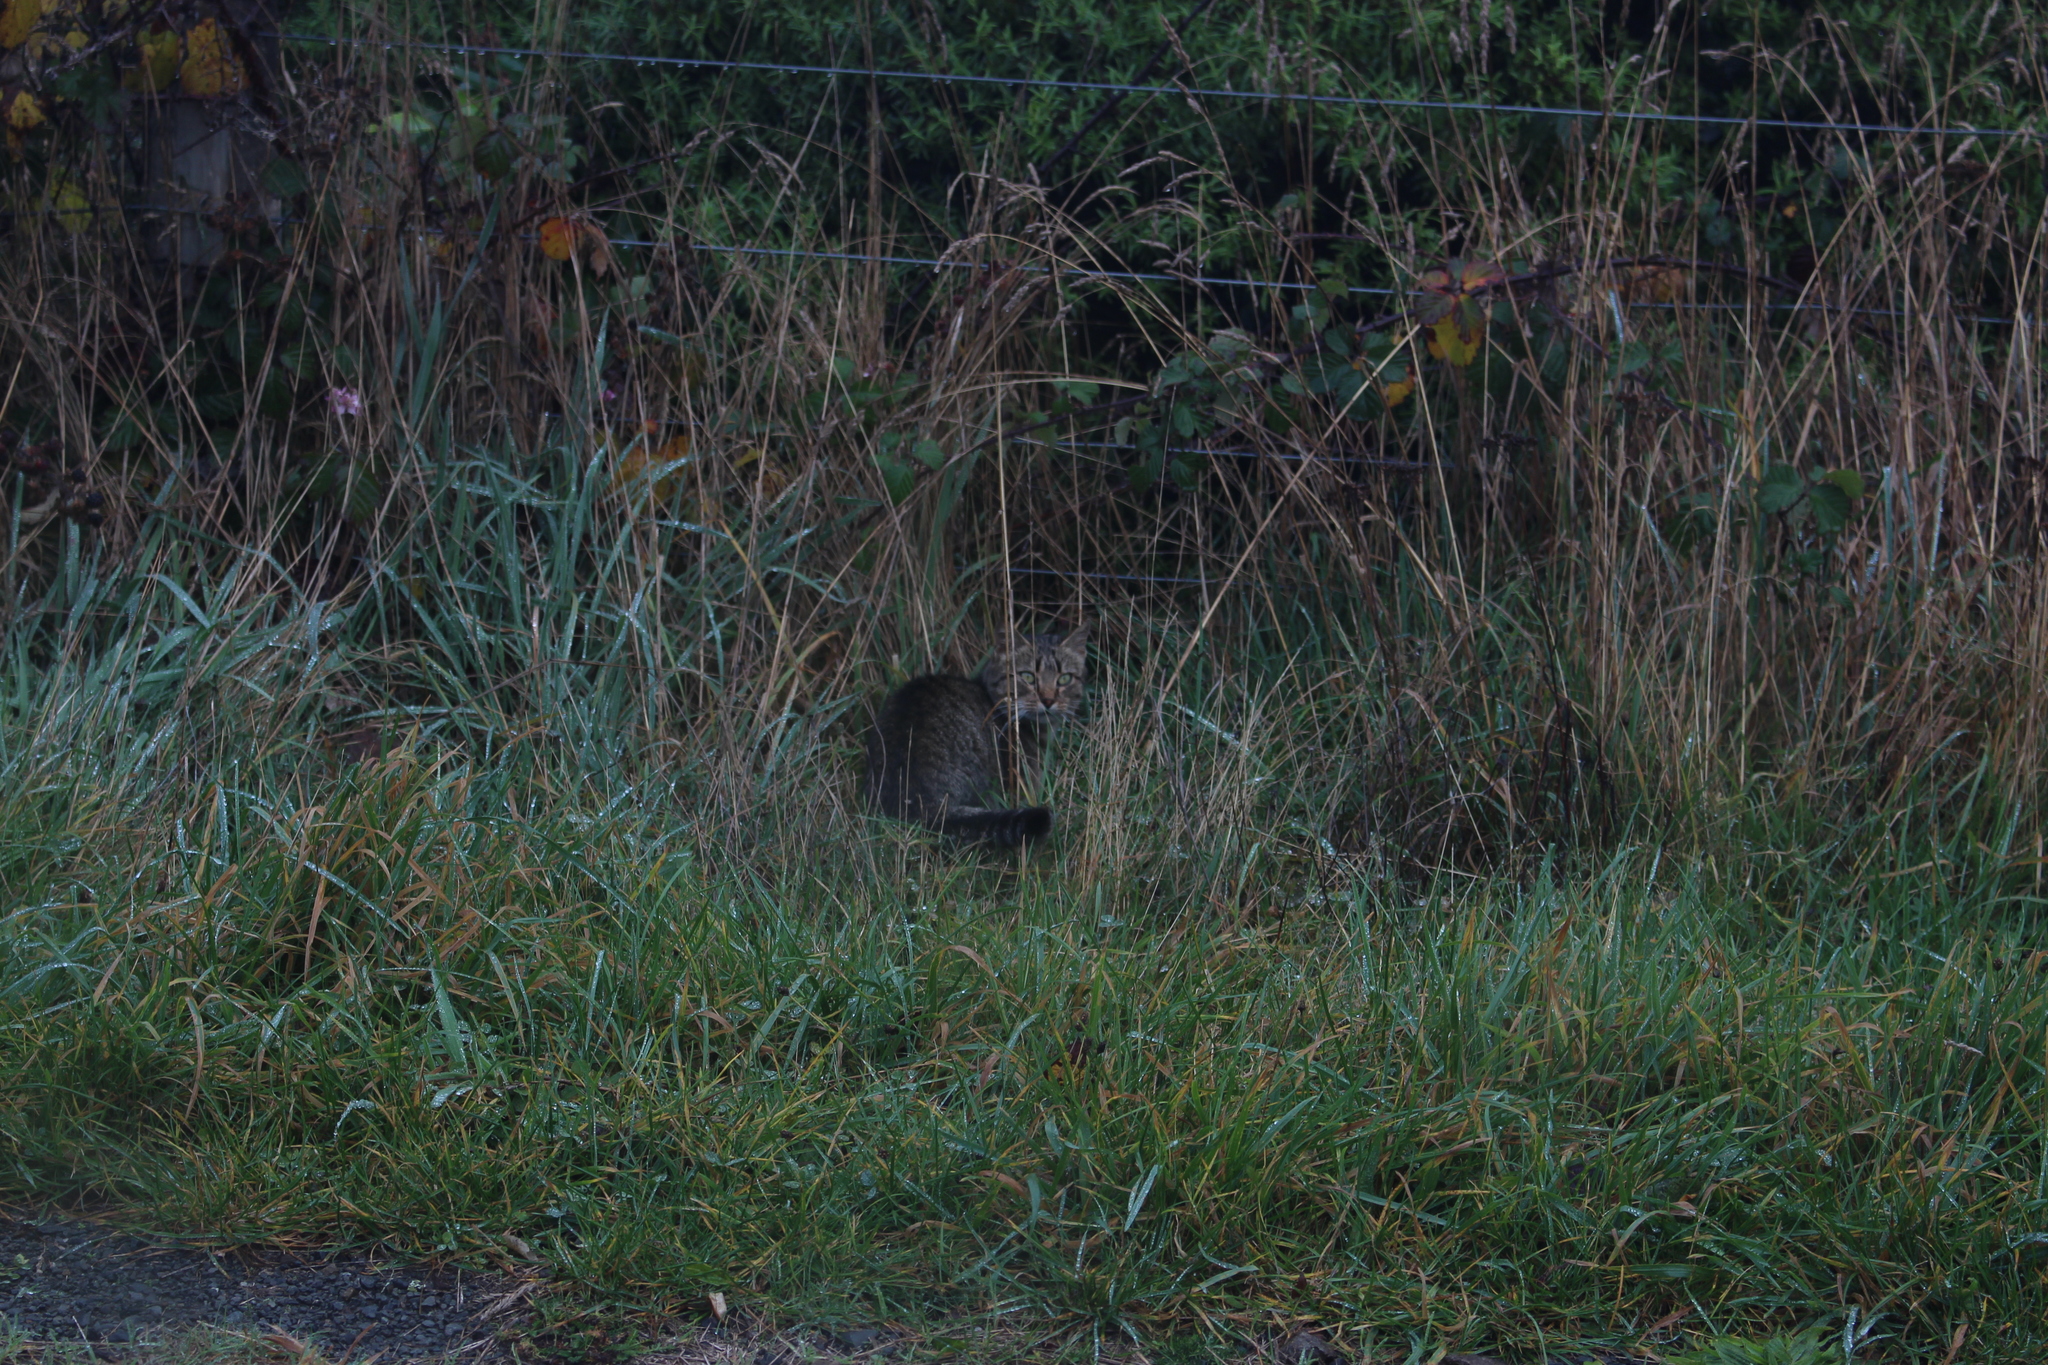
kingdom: Animalia
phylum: Chordata
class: Mammalia
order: Carnivora
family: Felidae
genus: Felis
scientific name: Felis catus
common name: Domestic cat
